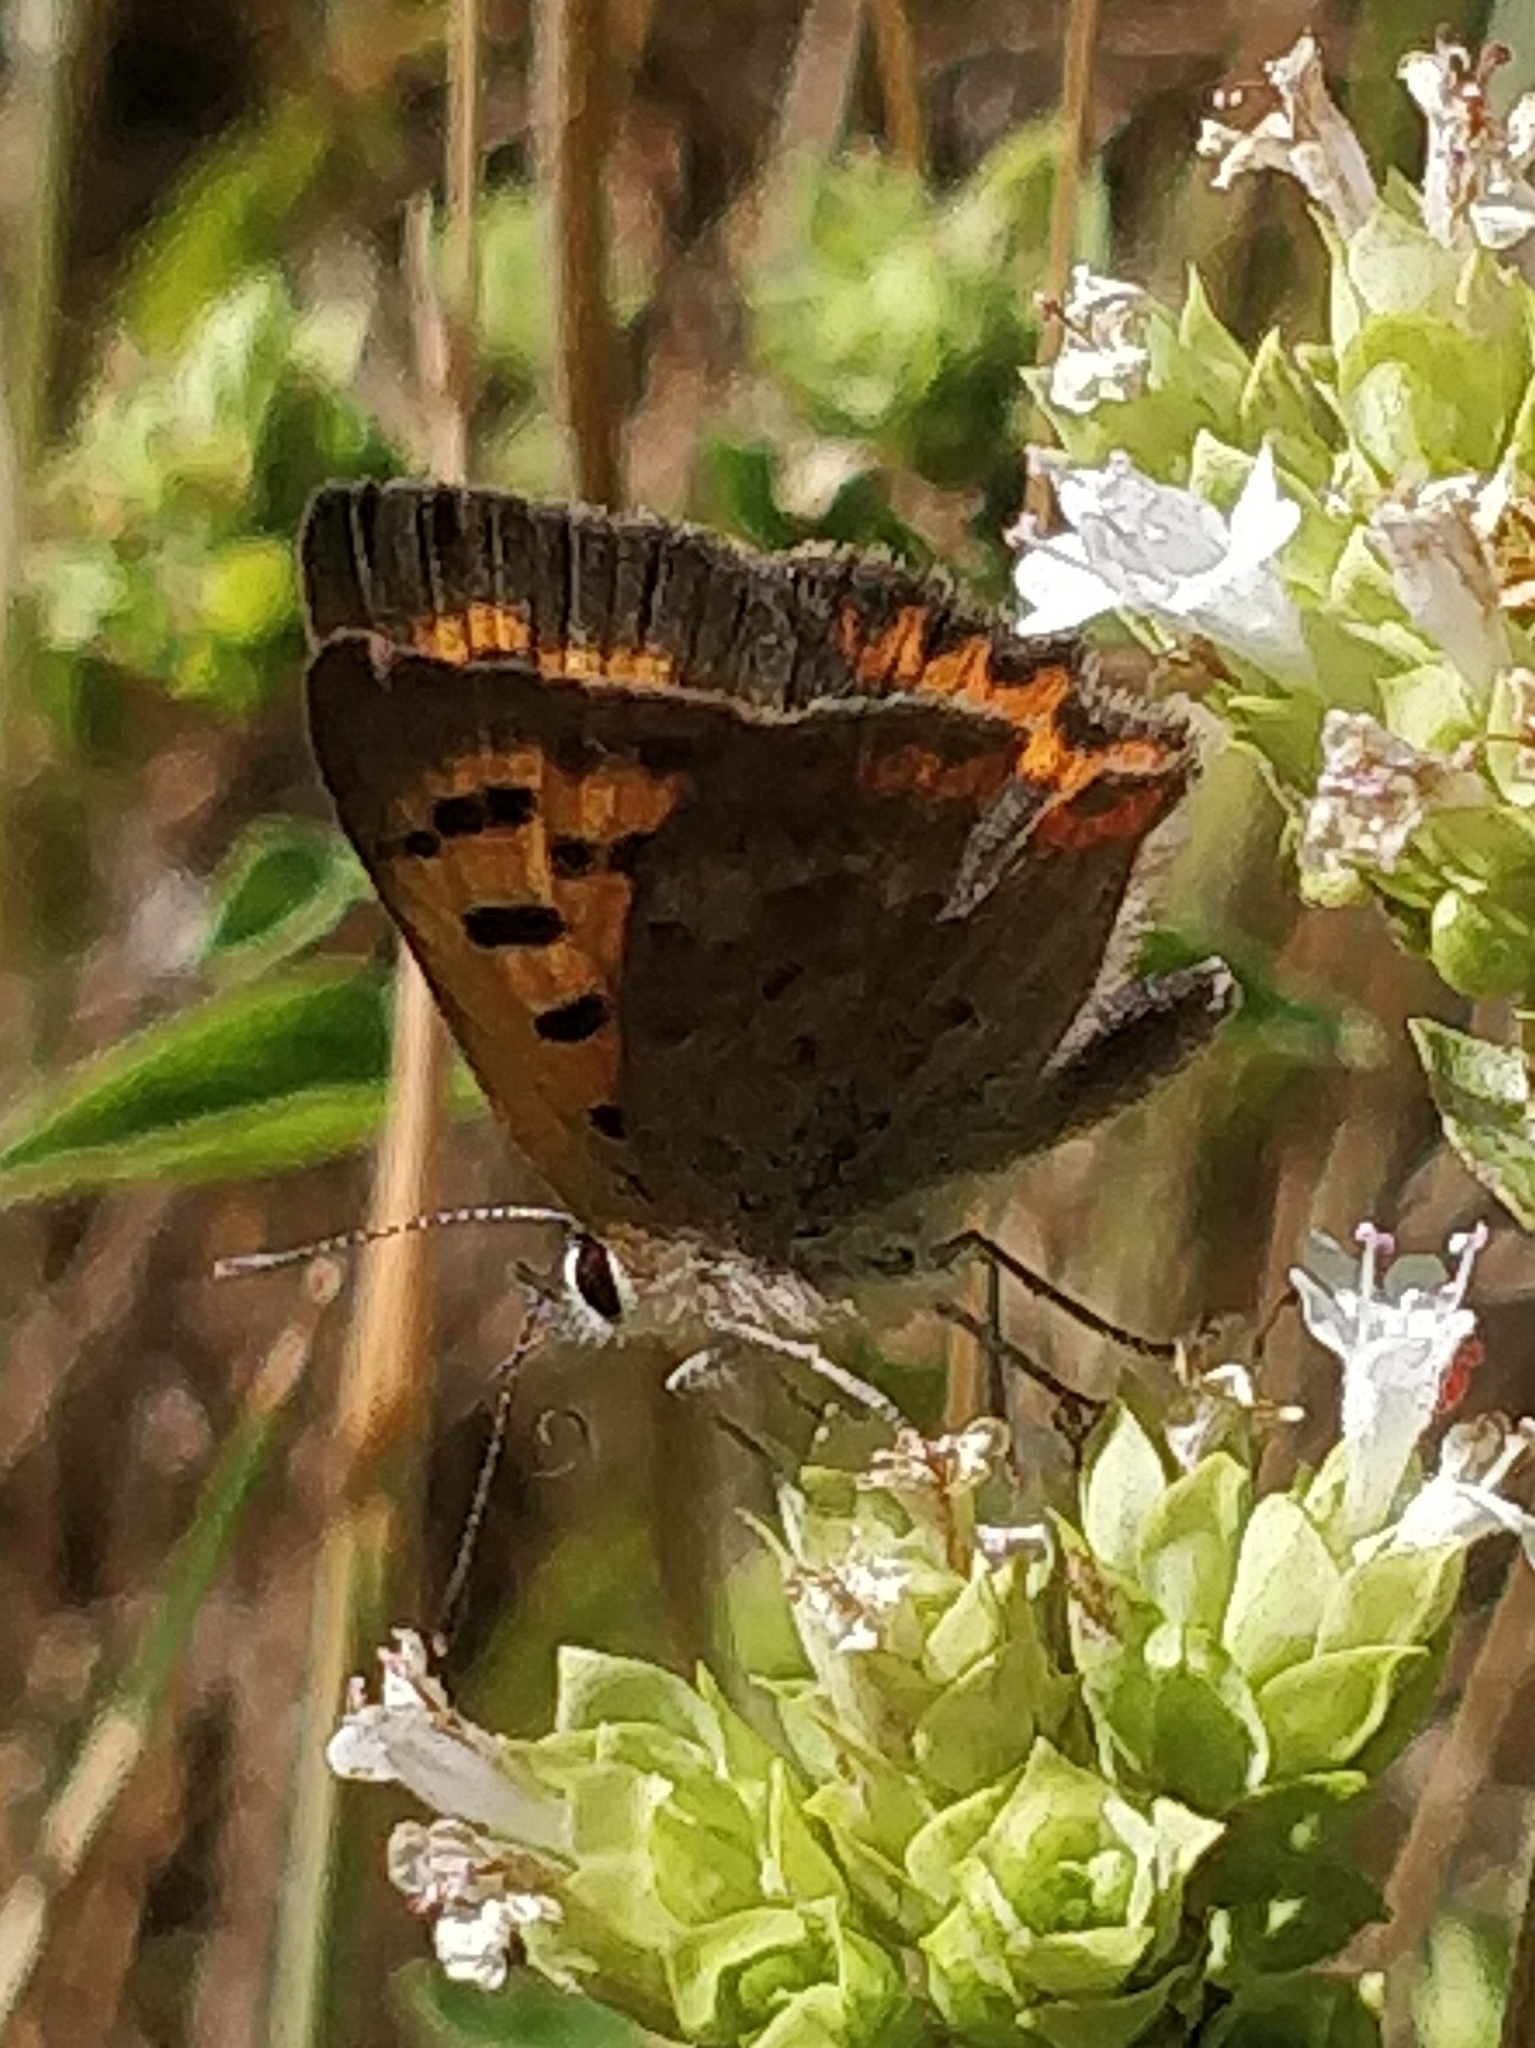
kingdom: Animalia
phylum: Arthropoda
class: Insecta
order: Lepidoptera
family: Lycaenidae
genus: Lycaena
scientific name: Lycaena phlaeas
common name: Small copper
